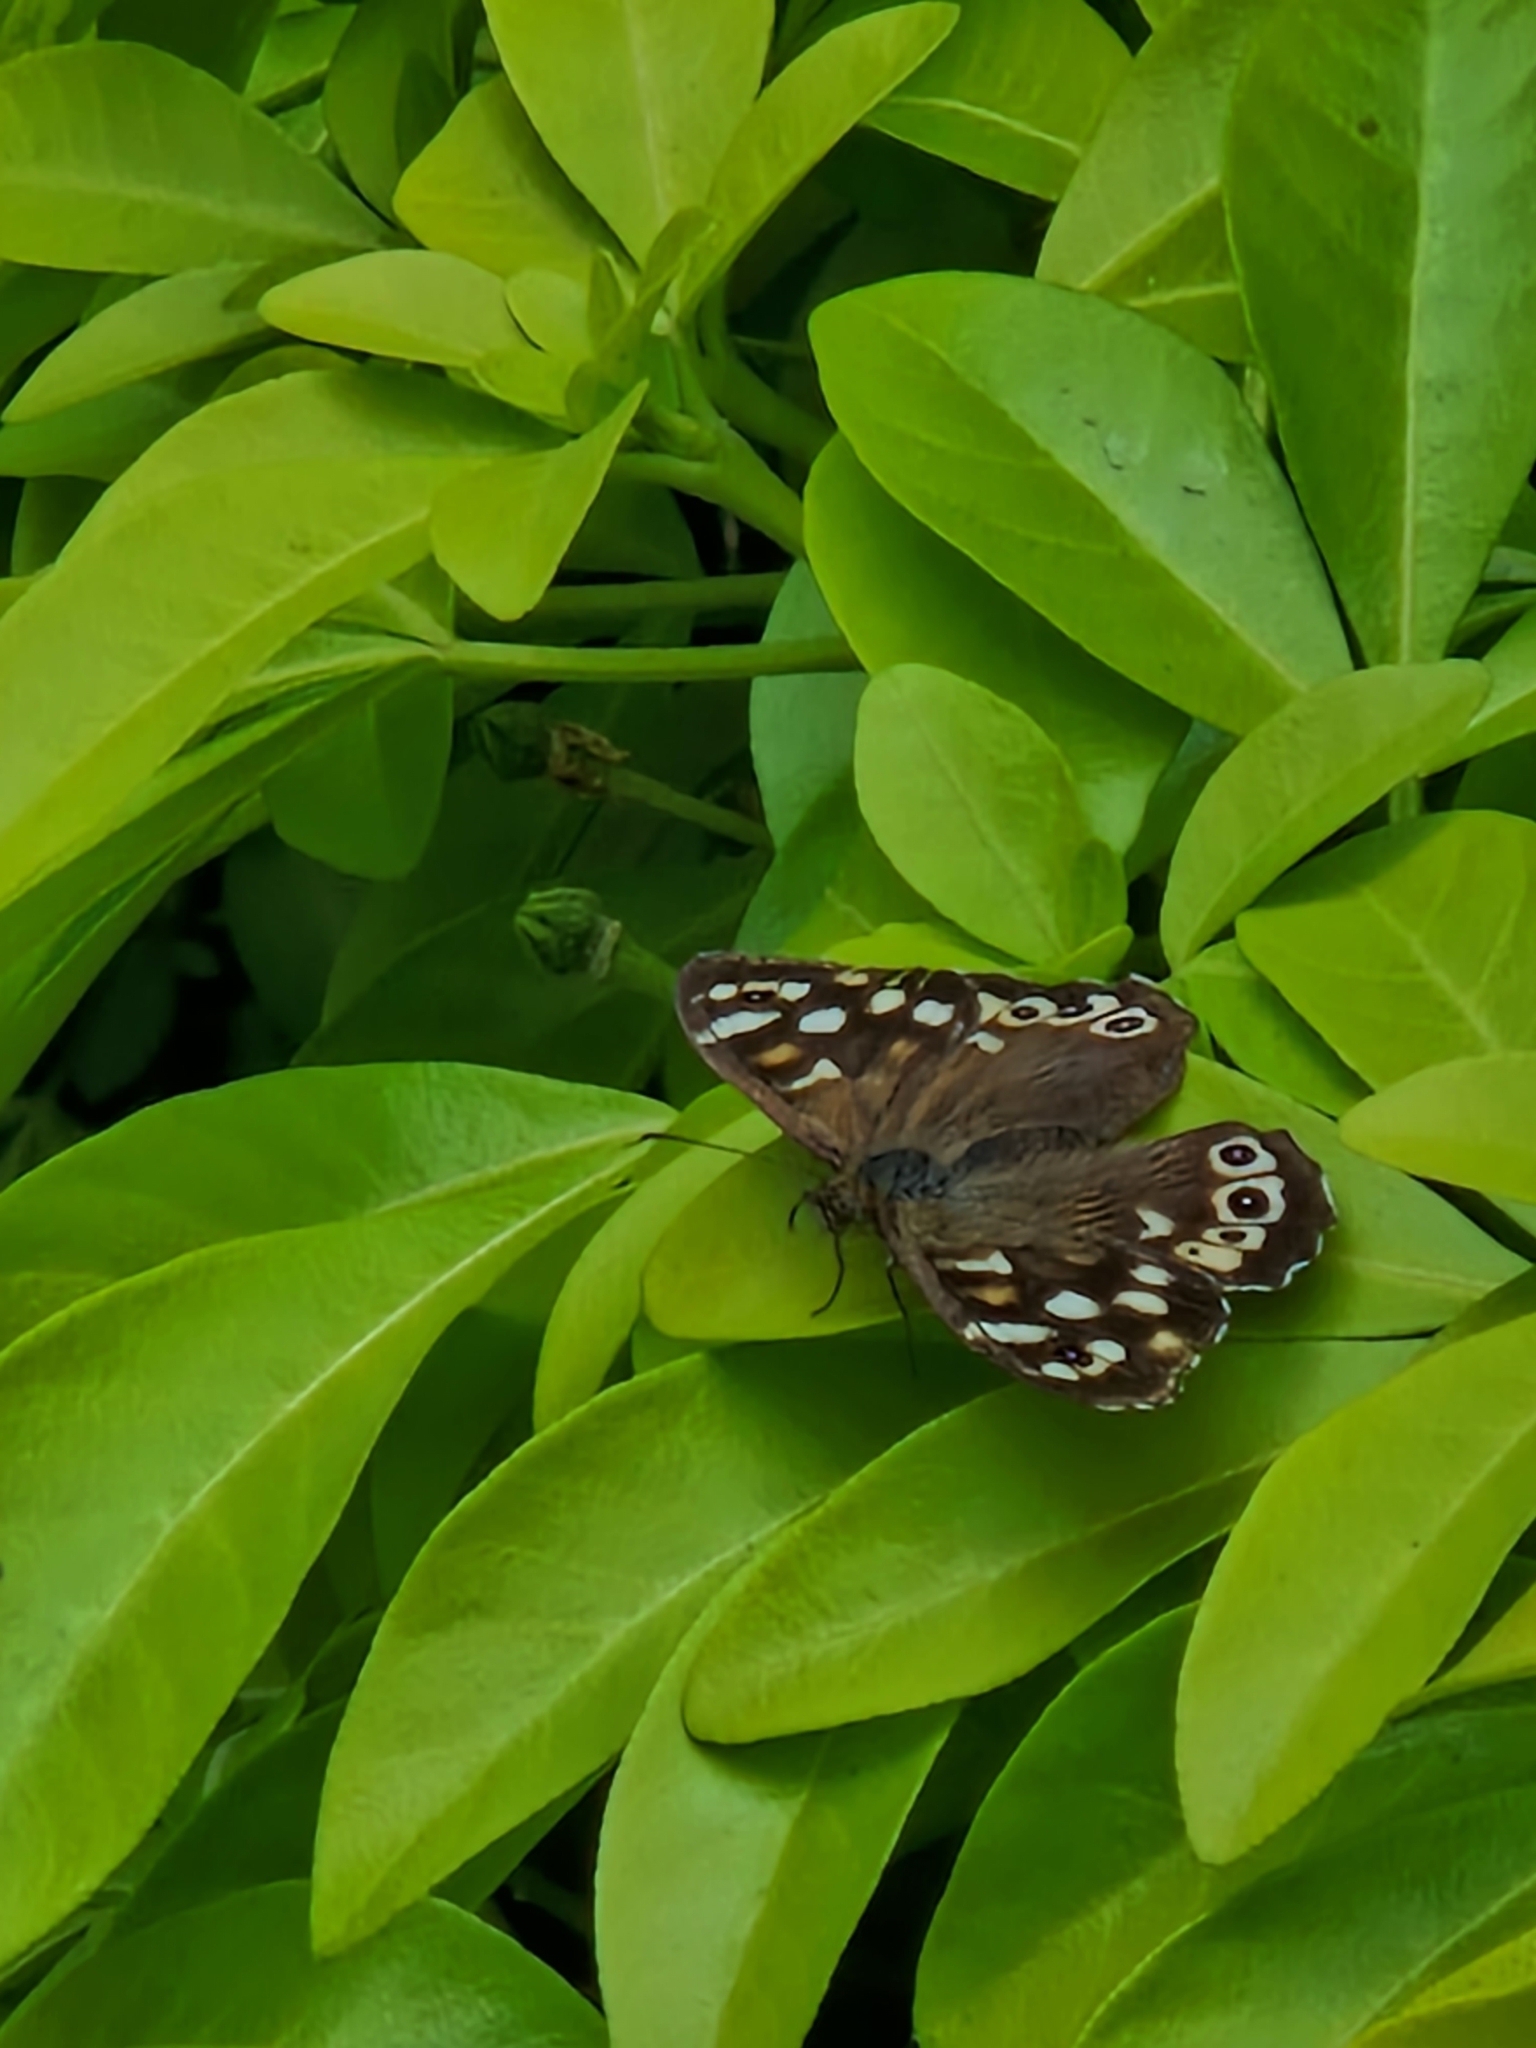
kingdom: Animalia
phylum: Arthropoda
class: Insecta
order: Lepidoptera
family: Nymphalidae
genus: Pararge
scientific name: Pararge aegeria
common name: Speckled wood
